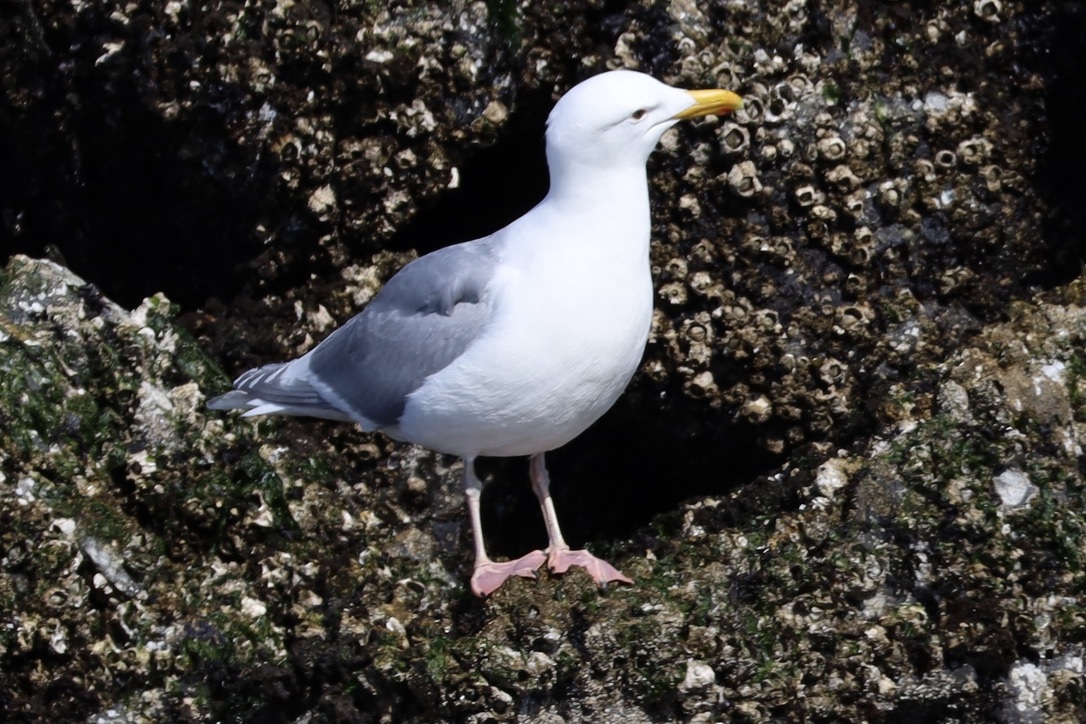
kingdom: Animalia
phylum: Chordata
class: Aves
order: Charadriiformes
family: Laridae
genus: Larus
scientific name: Larus glaucescens
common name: Glaucous-winged gull
